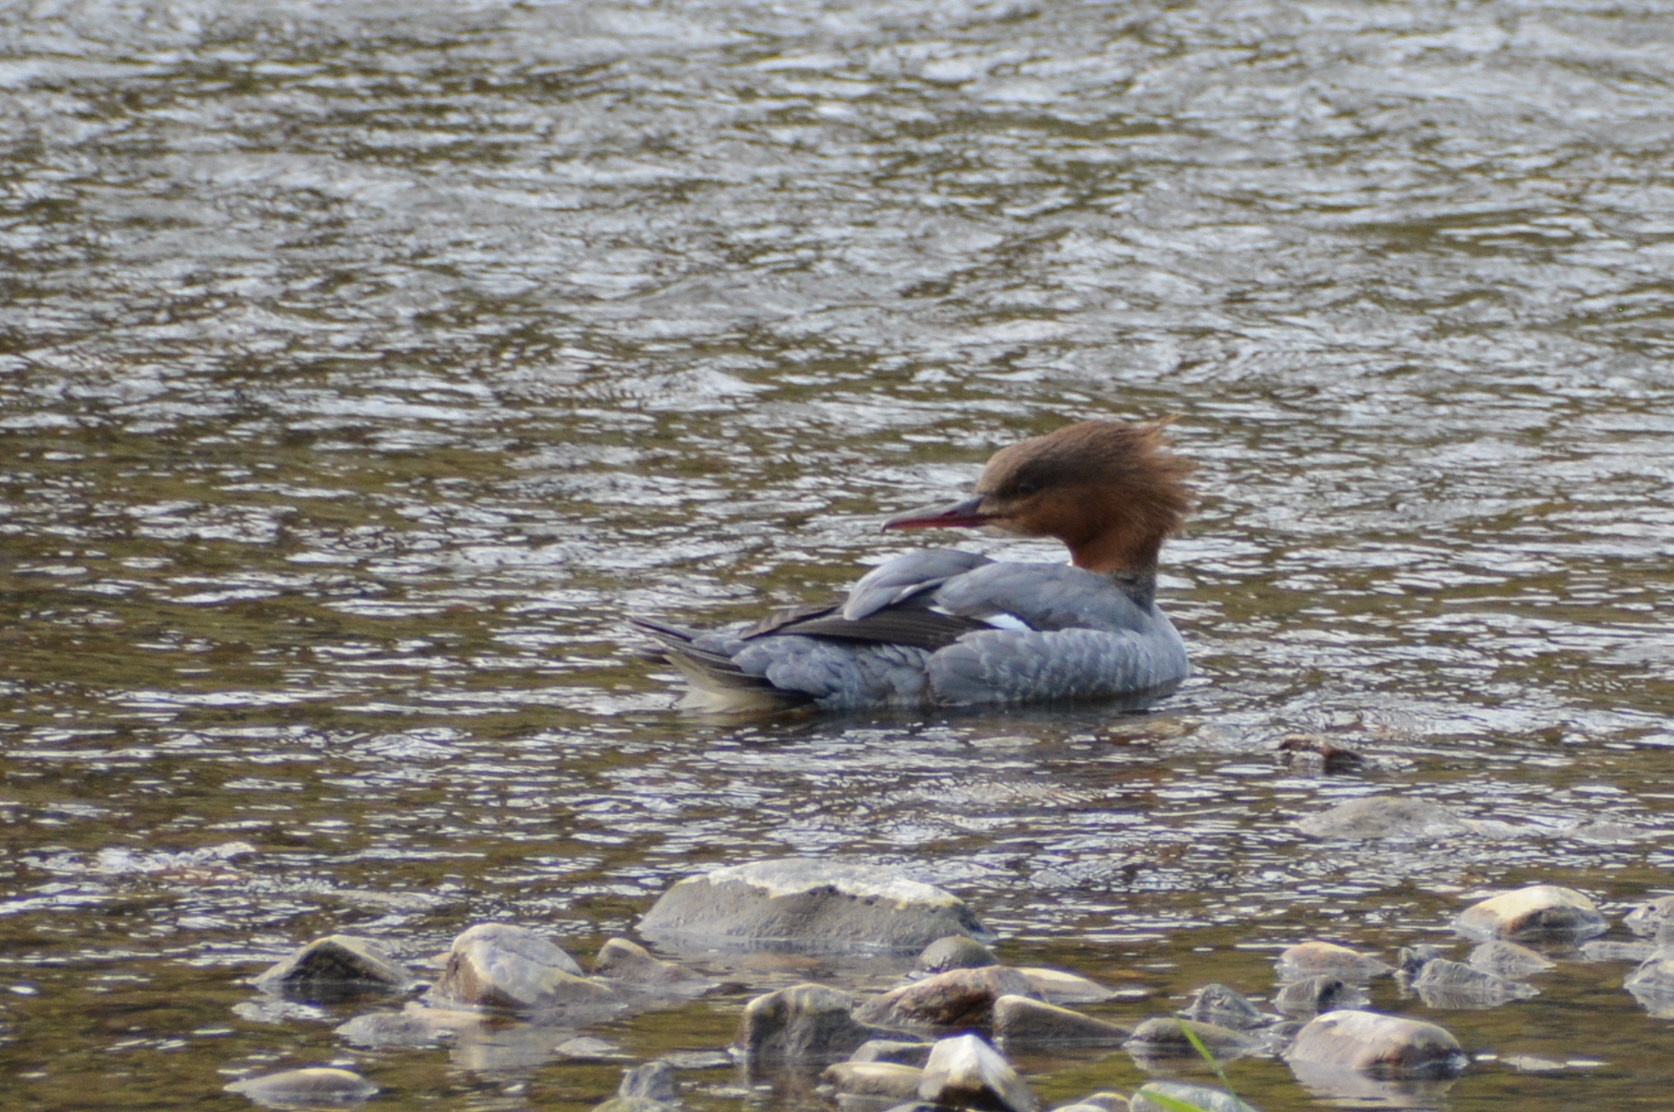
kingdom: Animalia
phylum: Chordata
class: Aves
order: Anseriformes
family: Anatidae
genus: Mergus
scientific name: Mergus merganser
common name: Common merganser
